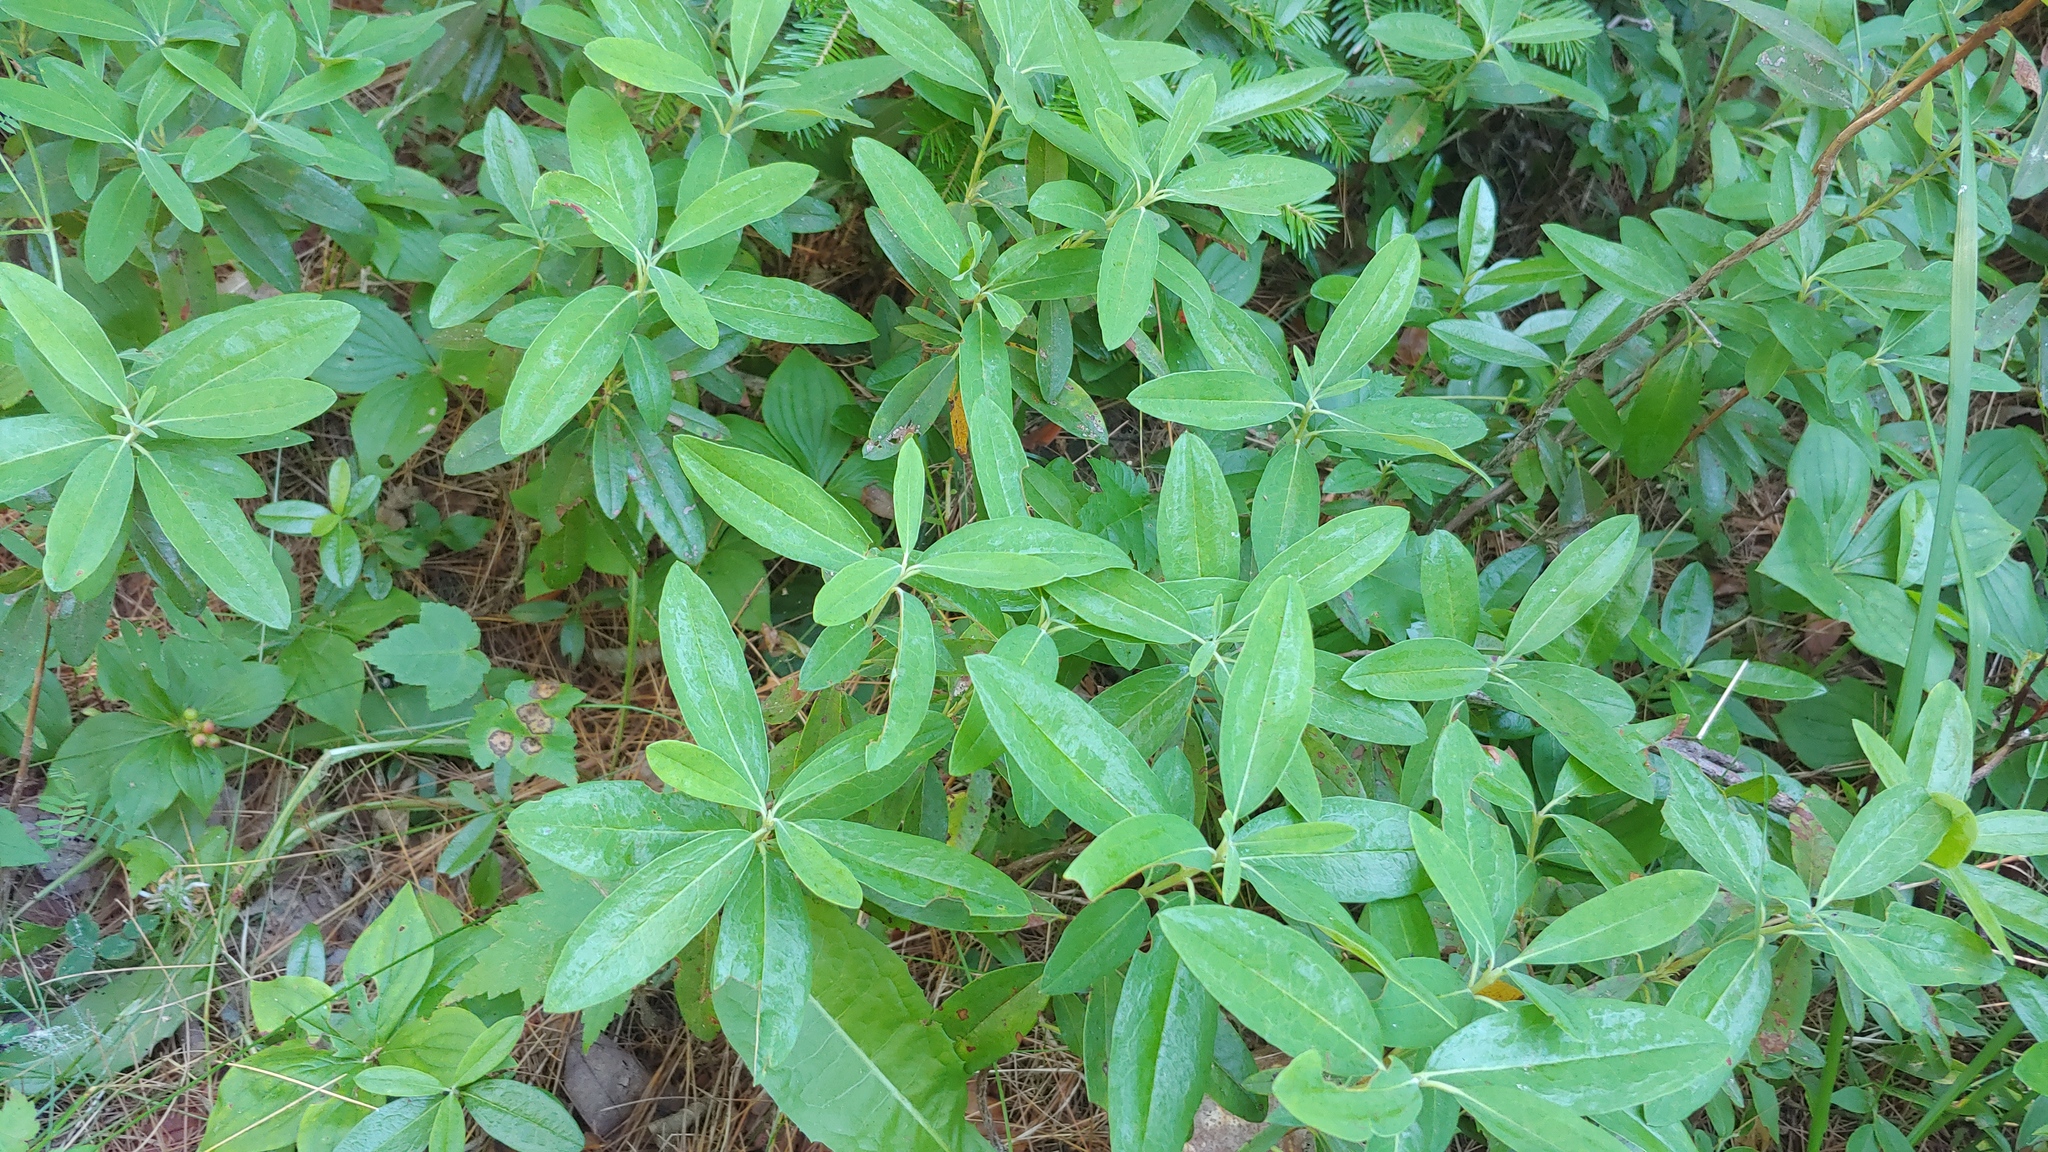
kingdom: Plantae
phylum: Tracheophyta
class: Magnoliopsida
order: Ericales
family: Ericaceae
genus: Kalmia
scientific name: Kalmia angustifolia
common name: Sheep-laurel
